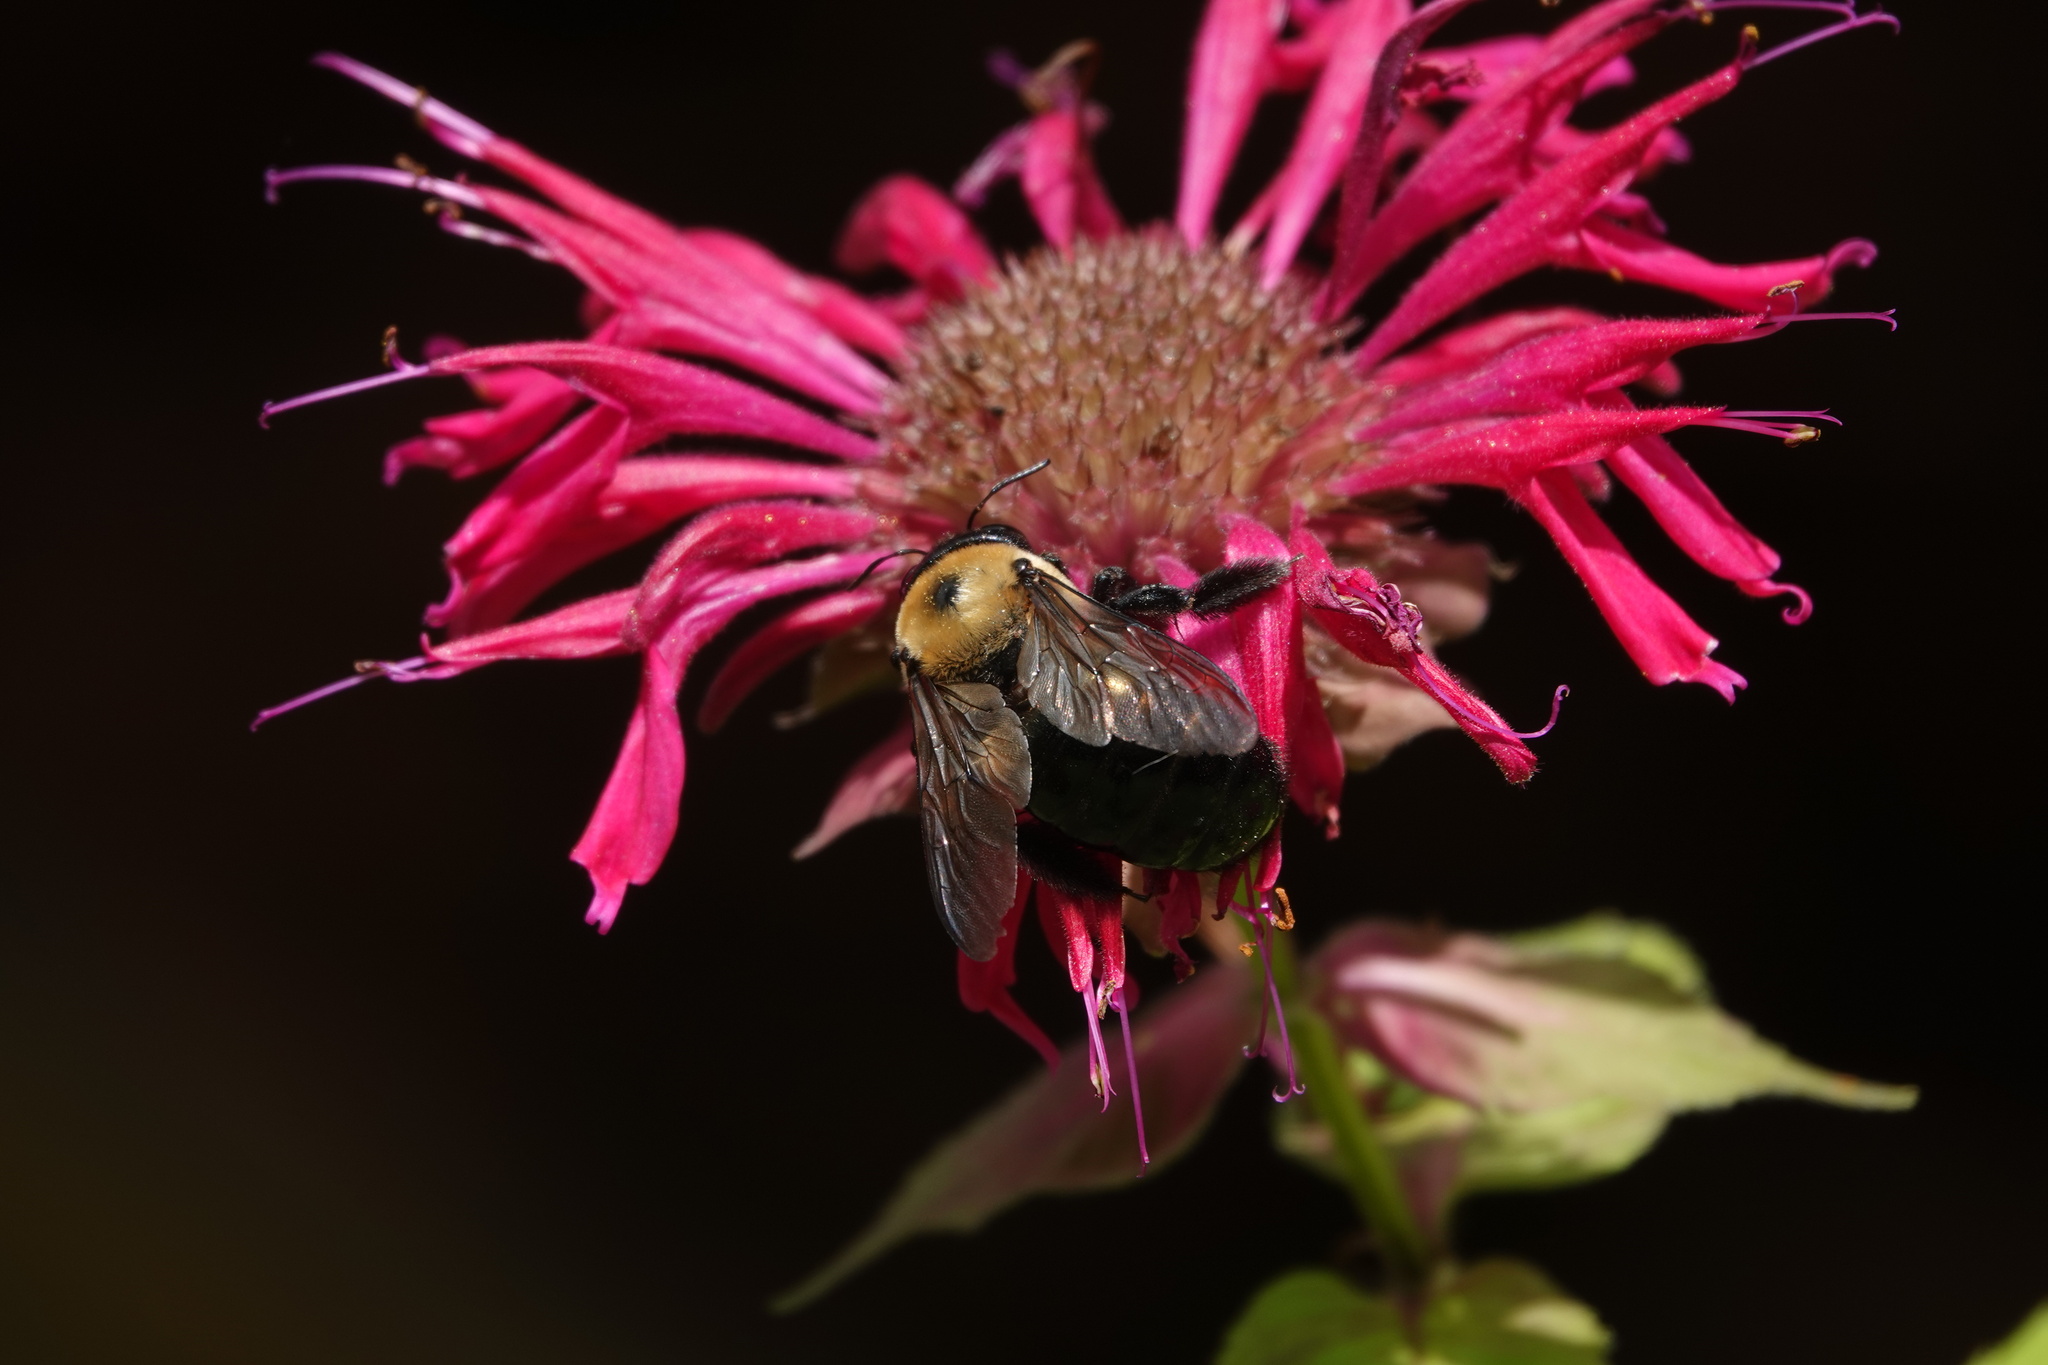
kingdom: Animalia
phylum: Arthropoda
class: Insecta
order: Hymenoptera
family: Apidae
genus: Xylocopa
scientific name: Xylocopa virginica
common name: Carpenter bee
